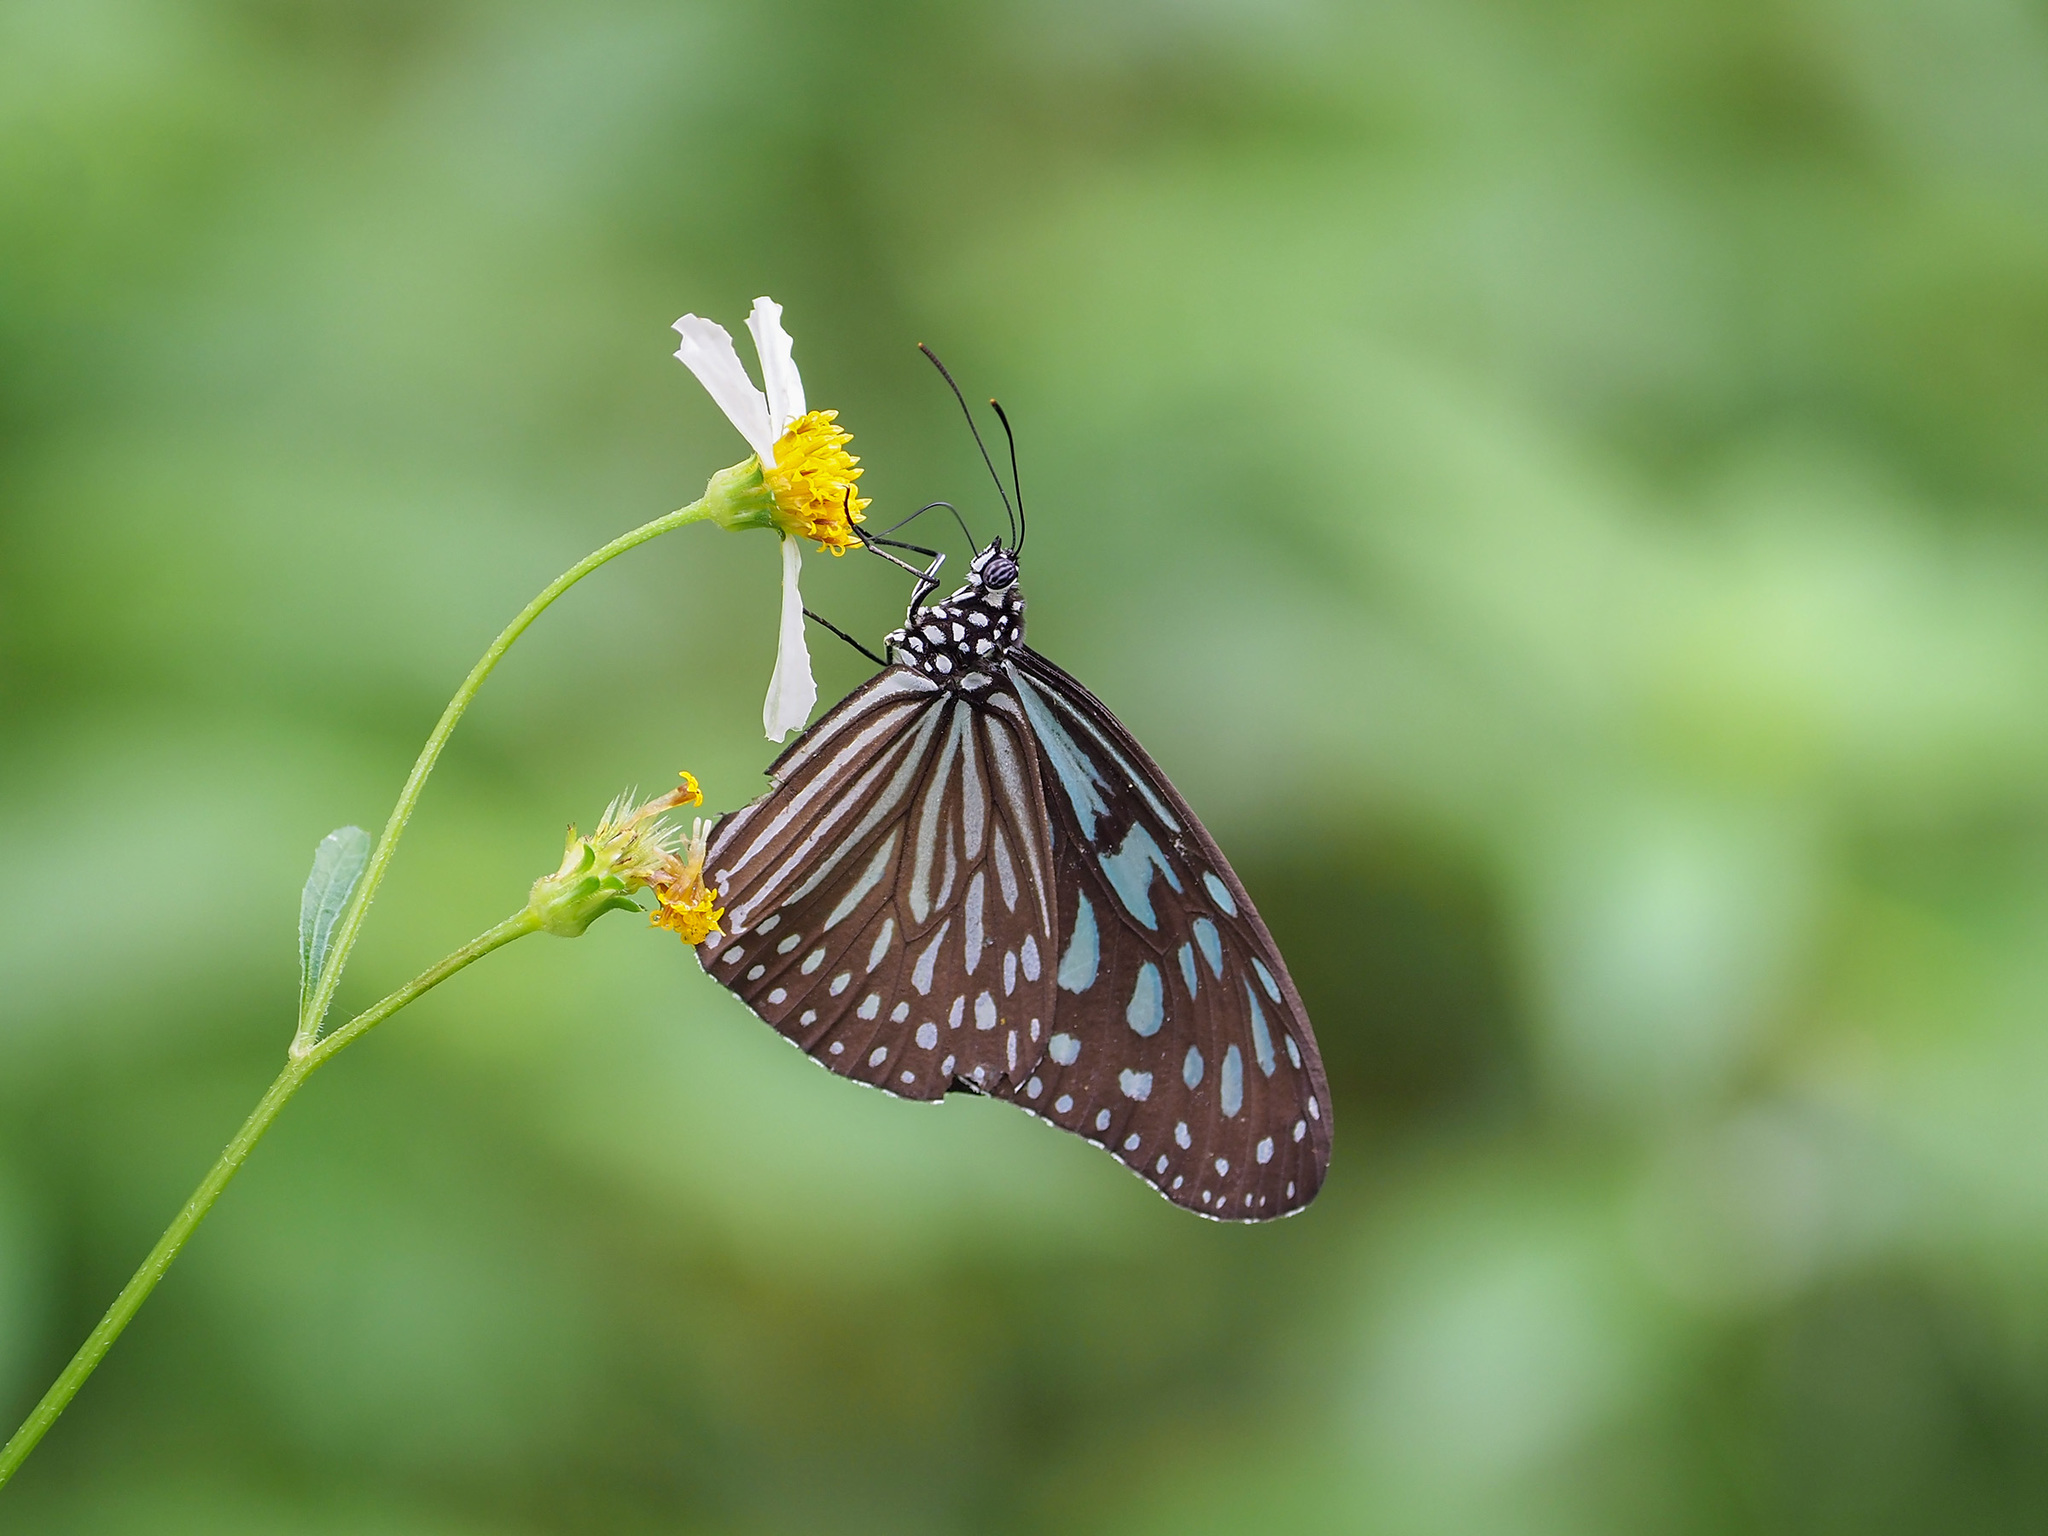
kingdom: Animalia
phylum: Arthropoda
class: Insecta
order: Lepidoptera
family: Nymphalidae
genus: Ideopsis
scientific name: Ideopsis vulgaris
